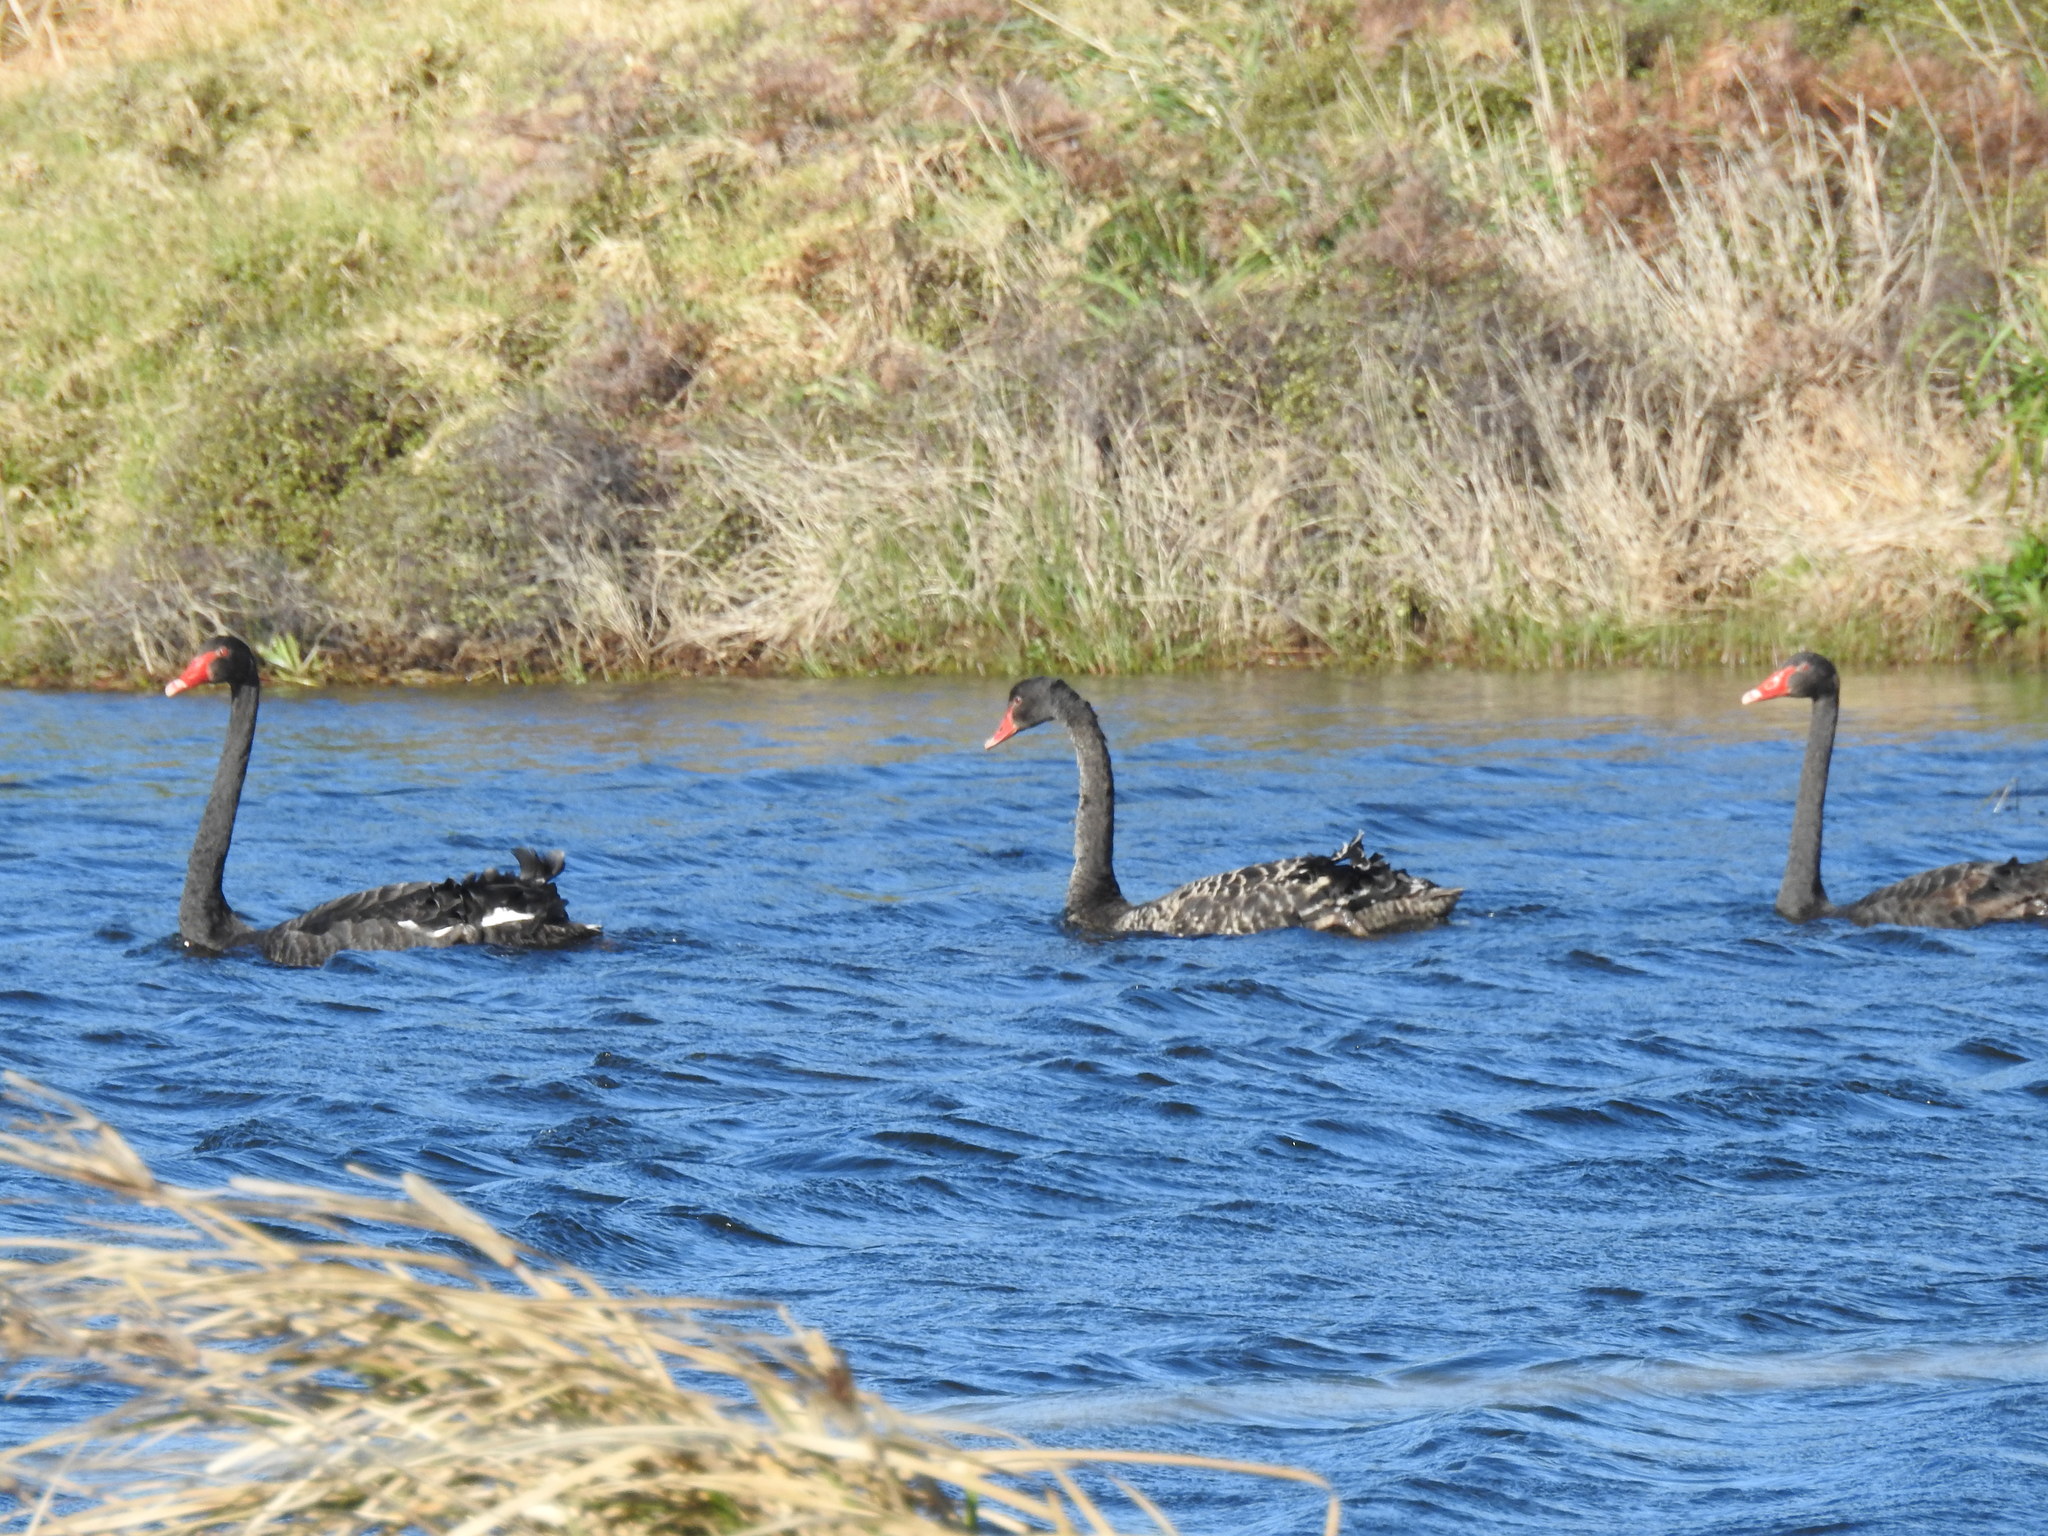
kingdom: Animalia
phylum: Chordata
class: Aves
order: Anseriformes
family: Anatidae
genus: Cygnus
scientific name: Cygnus atratus
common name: Black swan
